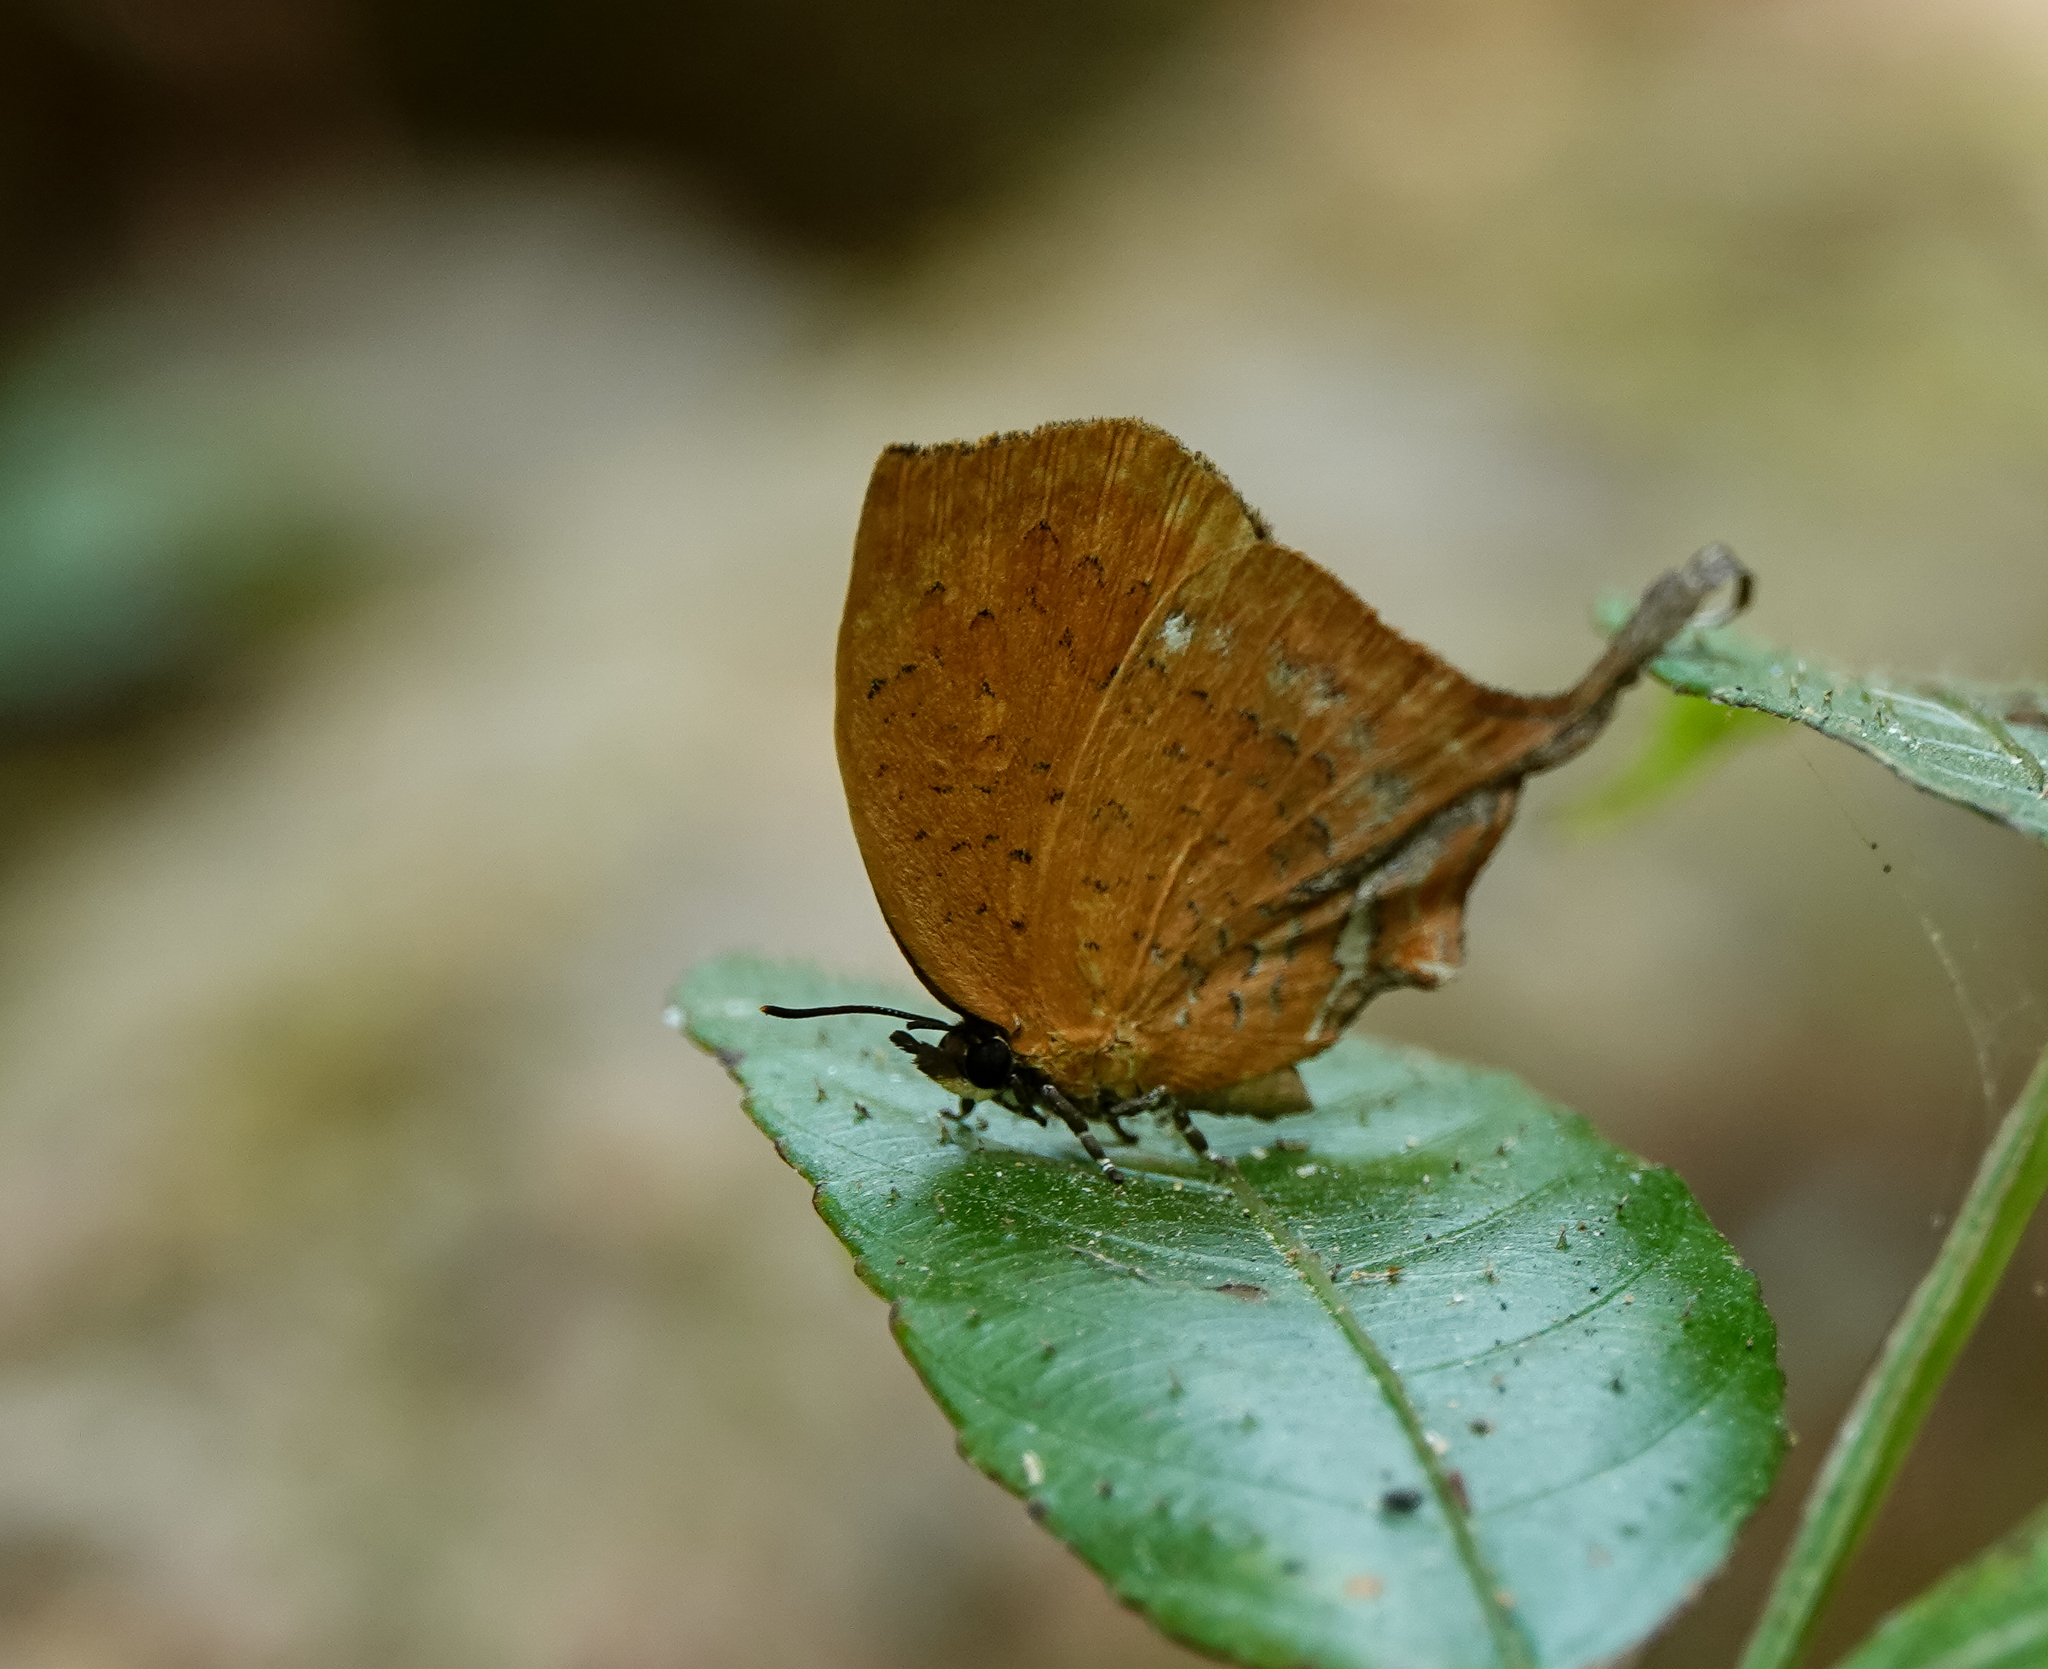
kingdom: Animalia
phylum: Arthropoda
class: Insecta
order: Lepidoptera
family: Lycaenidae
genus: Yasoda
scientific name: Yasoda tripunctata
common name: Branded yamfly
